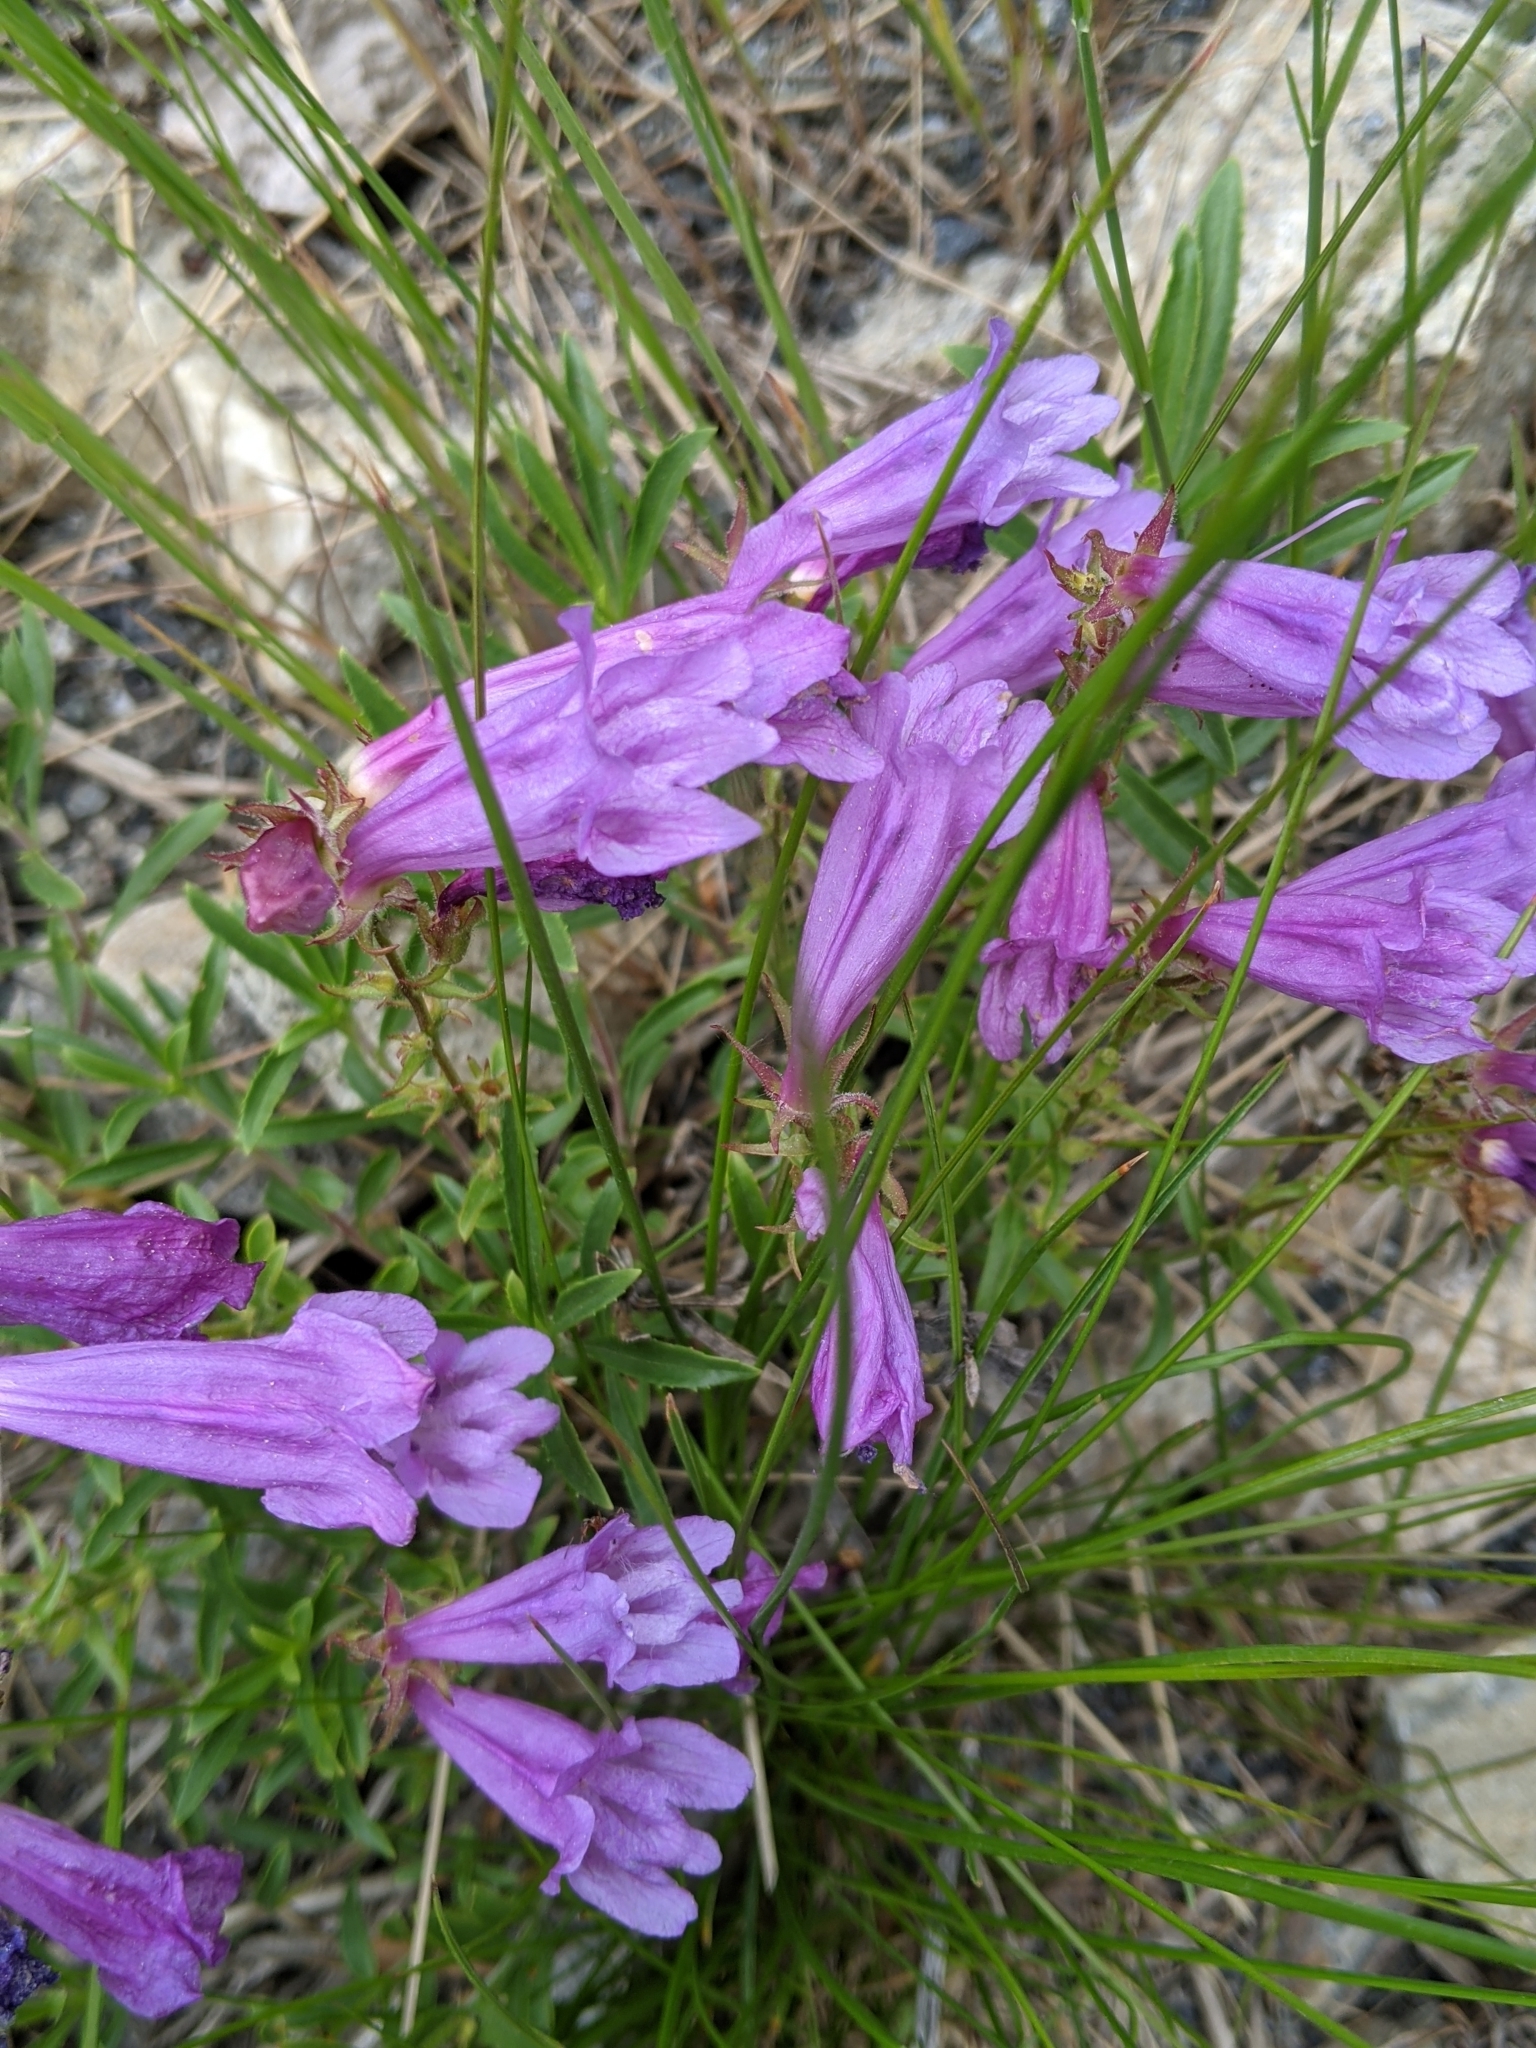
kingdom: Plantae
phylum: Tracheophyta
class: Magnoliopsida
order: Lamiales
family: Plantaginaceae
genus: Penstemon
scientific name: Penstemon fruticosus
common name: Bush penstemon
